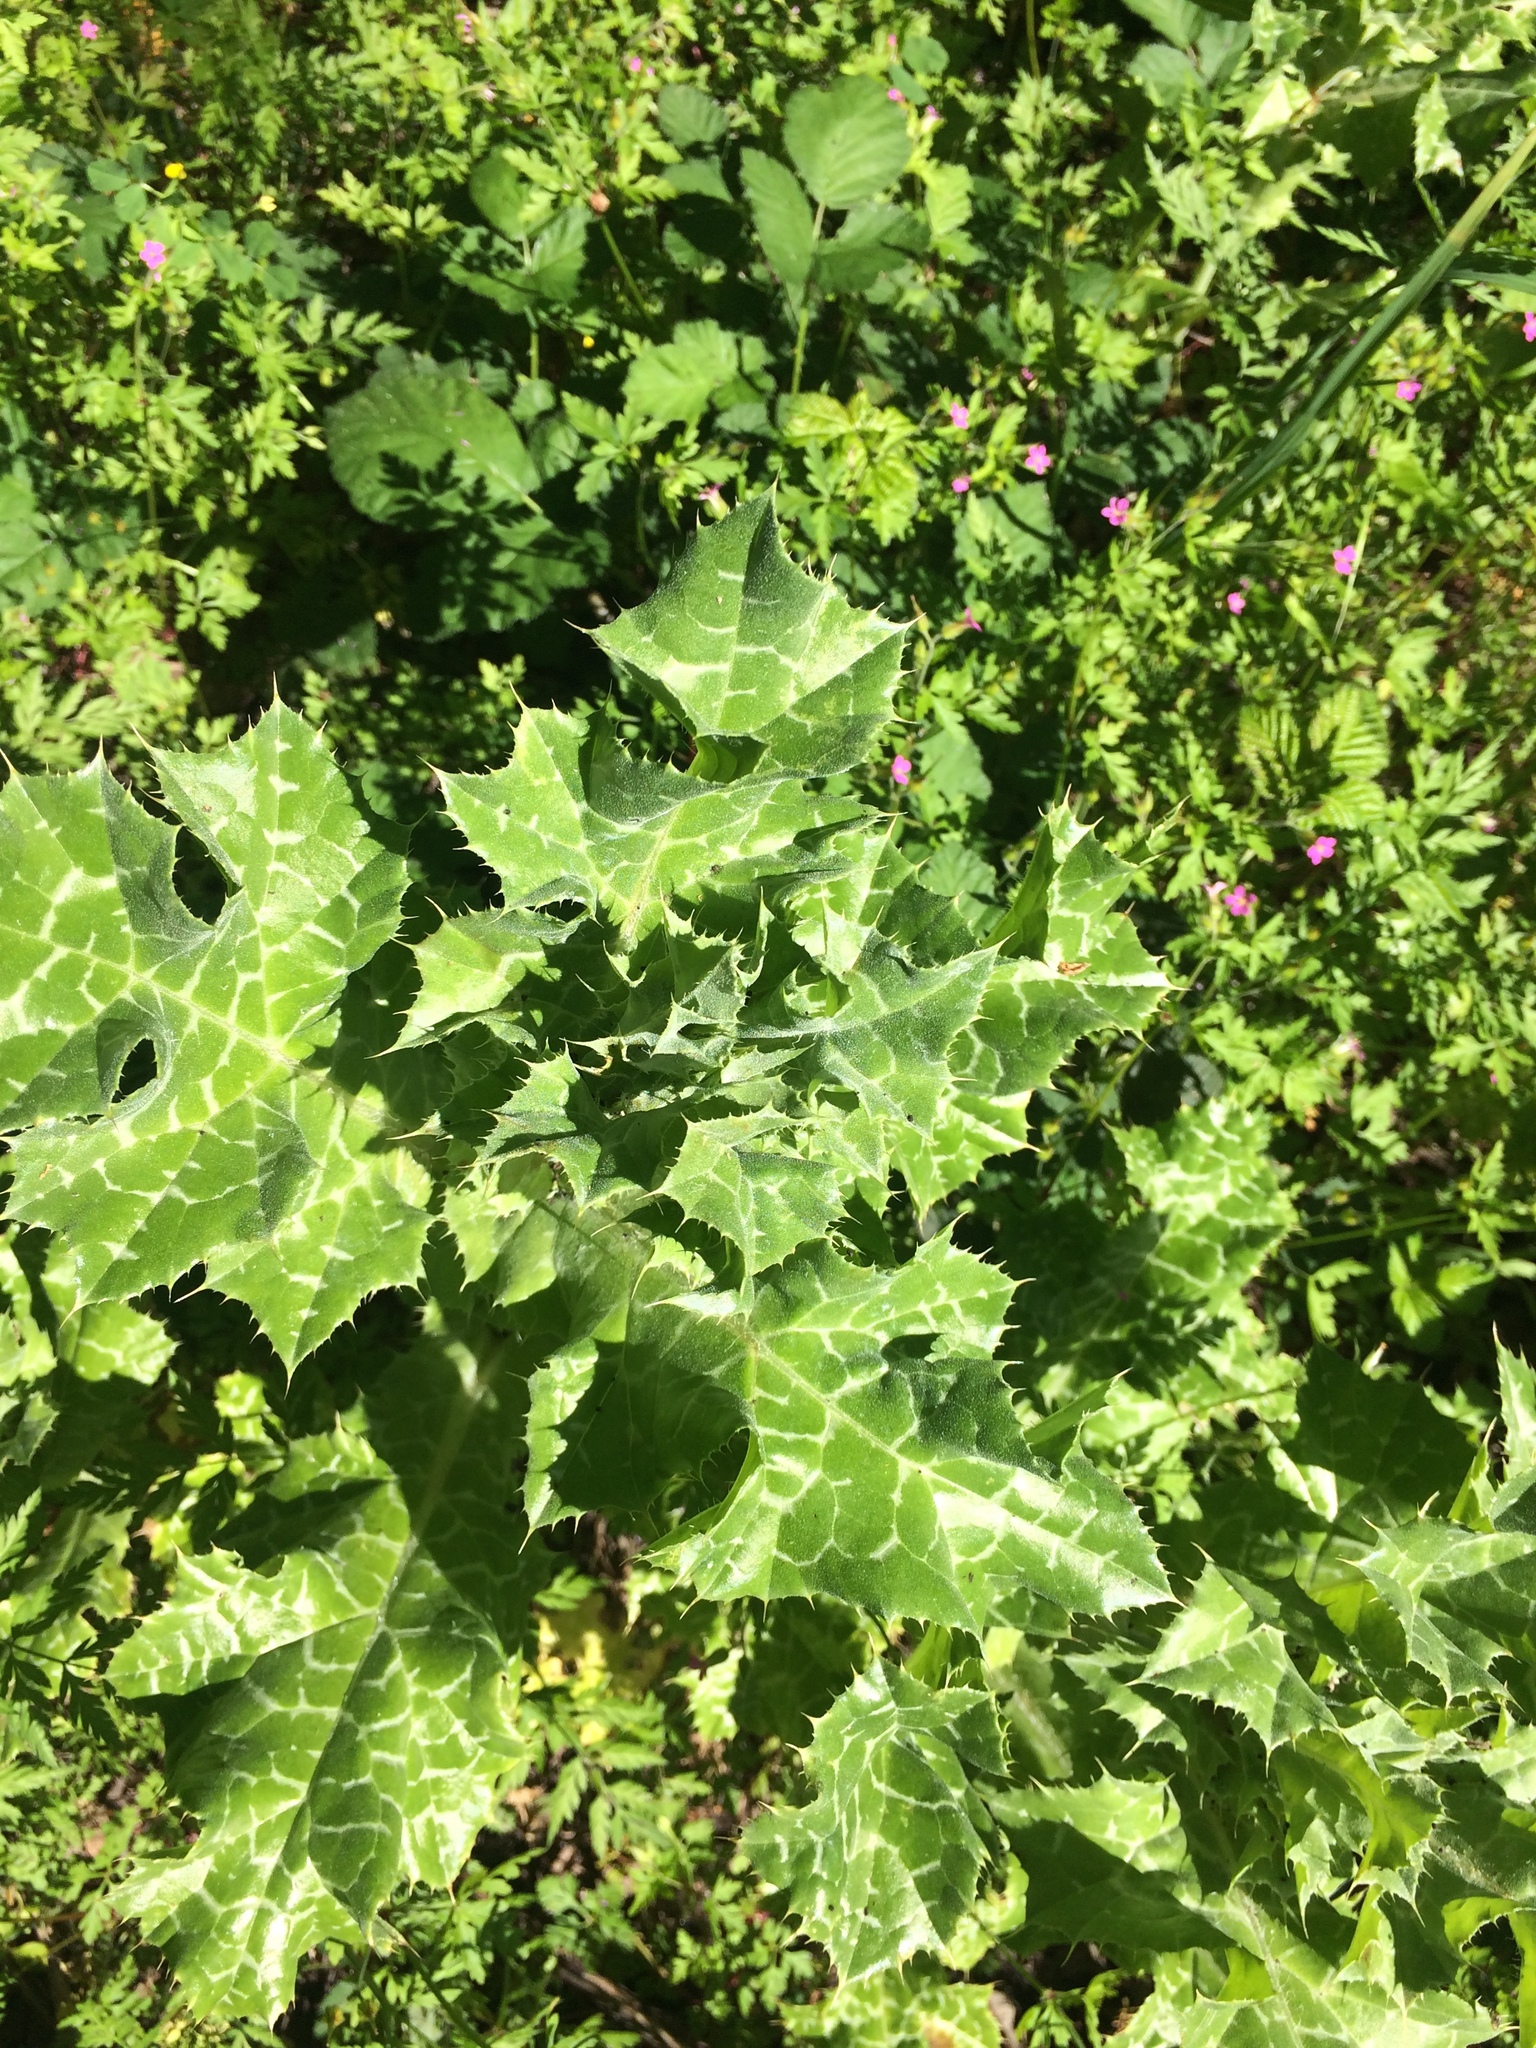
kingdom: Plantae
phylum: Tracheophyta
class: Magnoliopsida
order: Asterales
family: Asteraceae
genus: Silybum
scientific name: Silybum marianum
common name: Milk thistle
